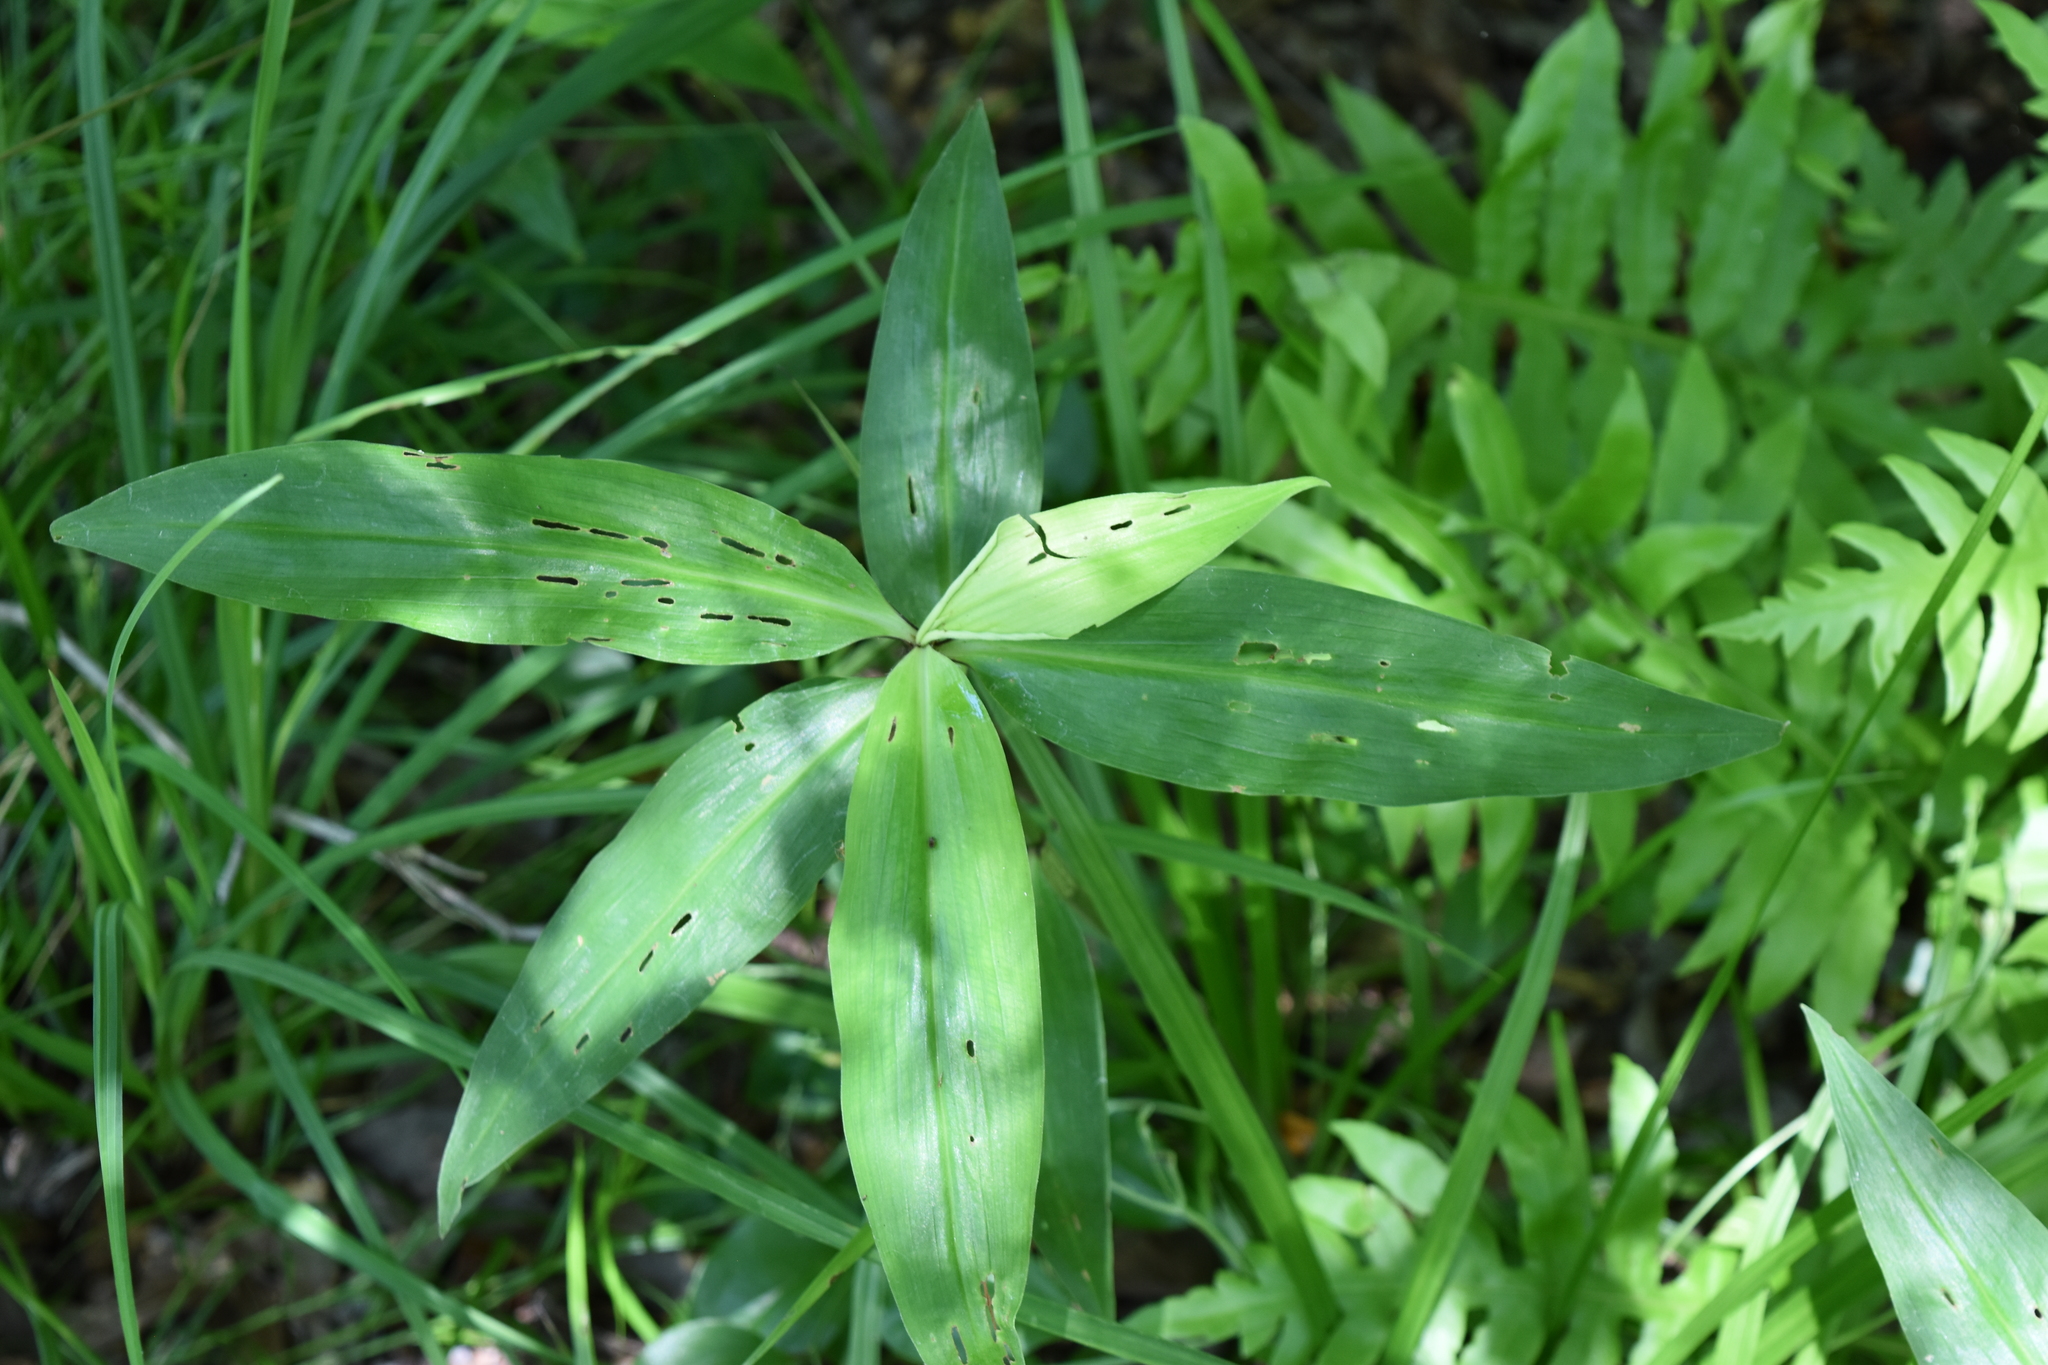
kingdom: Plantae
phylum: Tracheophyta
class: Liliopsida
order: Commelinales
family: Commelinaceae
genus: Commelina
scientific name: Commelina virginica
